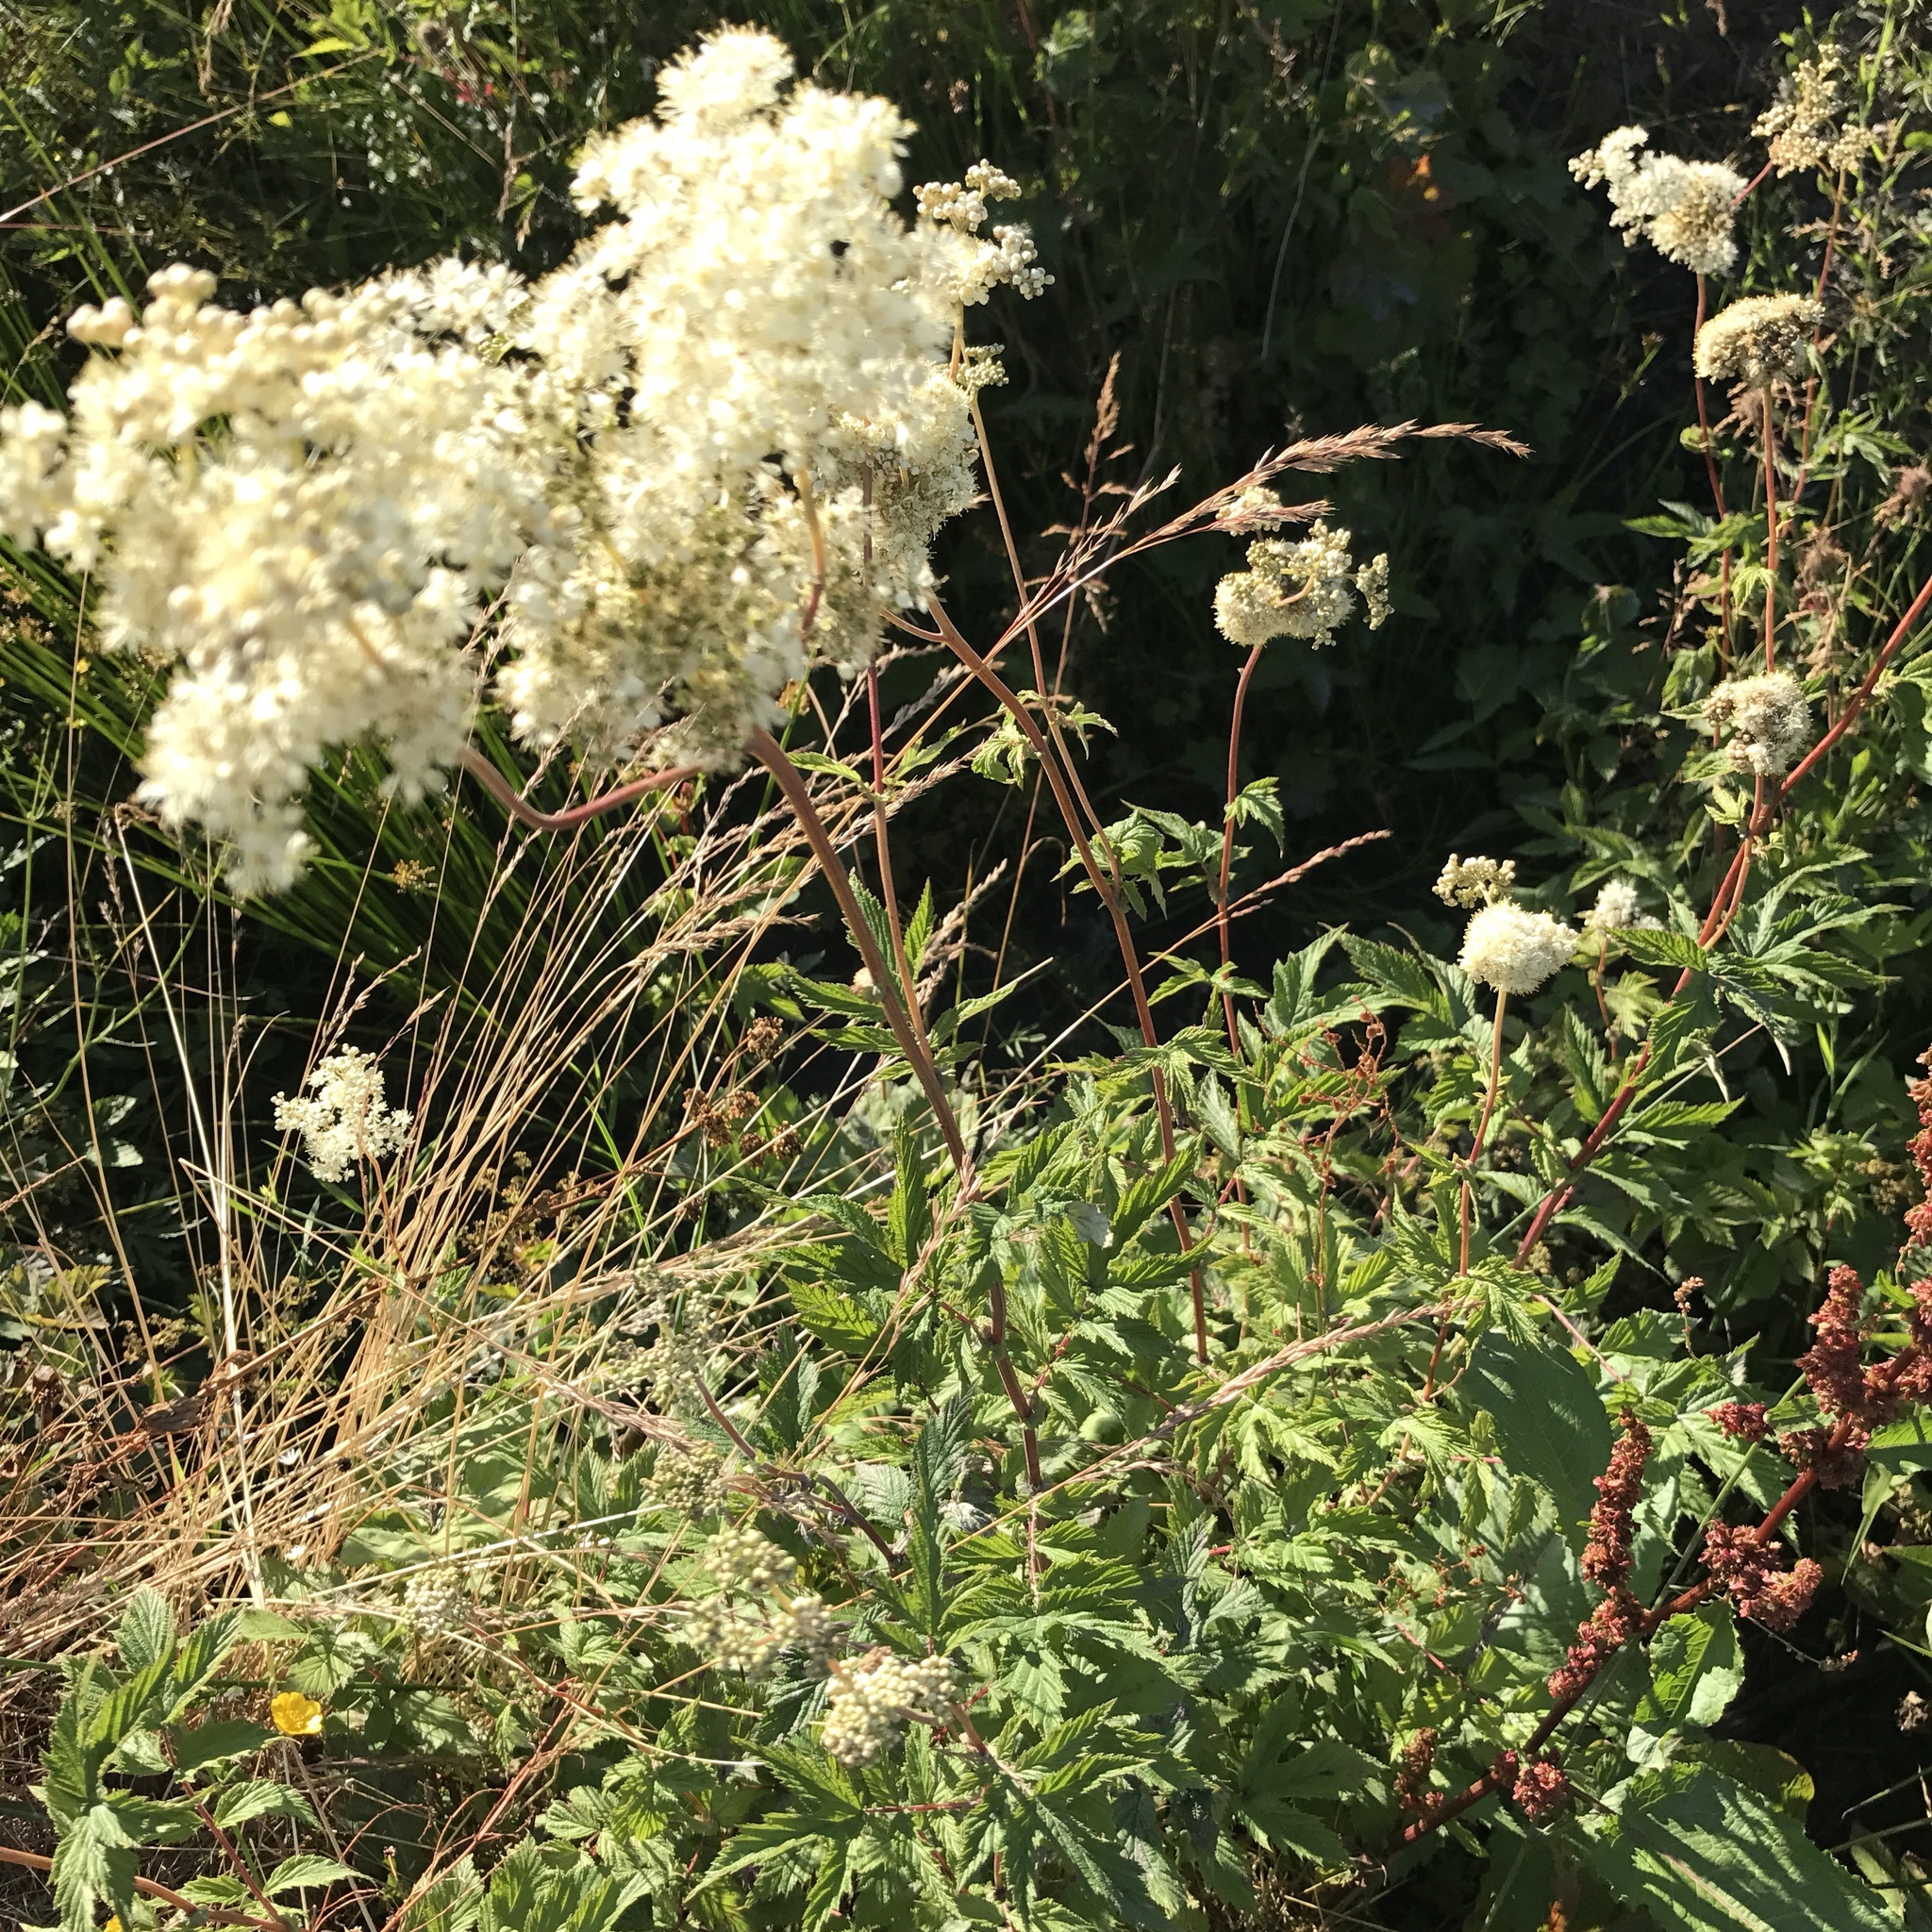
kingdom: Plantae
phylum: Tracheophyta
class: Magnoliopsida
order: Rosales
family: Rosaceae
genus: Filipendula
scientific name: Filipendula ulmaria
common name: Meadowsweet
